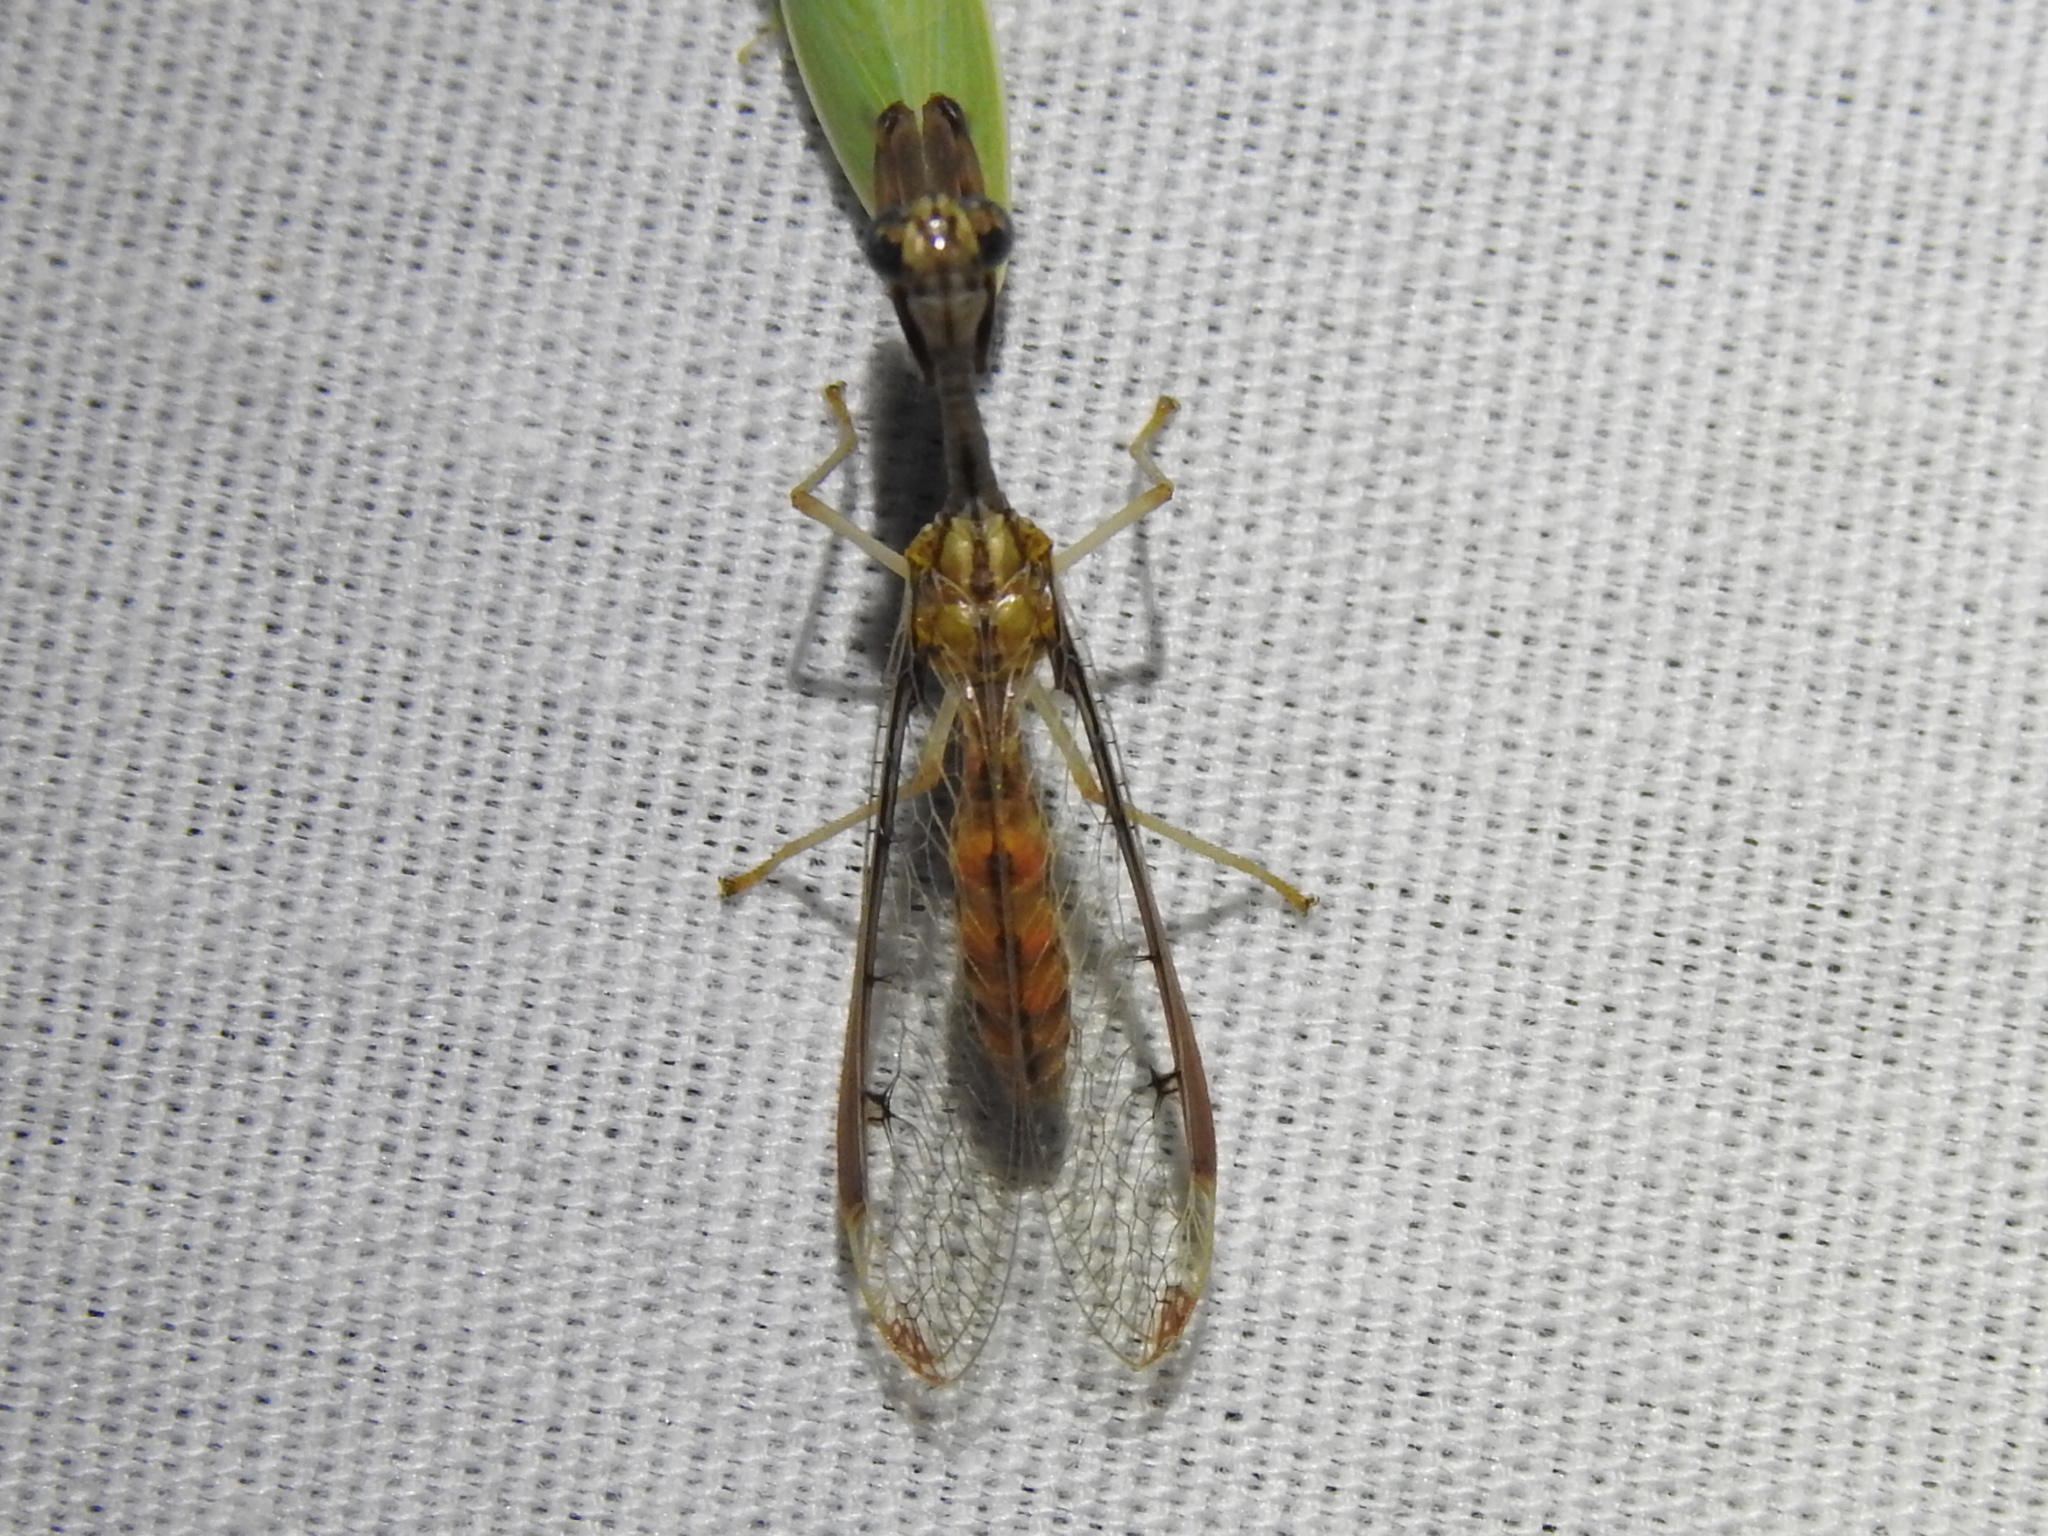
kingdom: Animalia
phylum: Arthropoda
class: Insecta
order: Neuroptera
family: Mantispidae
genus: Dicromantispa
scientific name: Dicromantispa interrupta
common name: Four-spotted mantidfly
